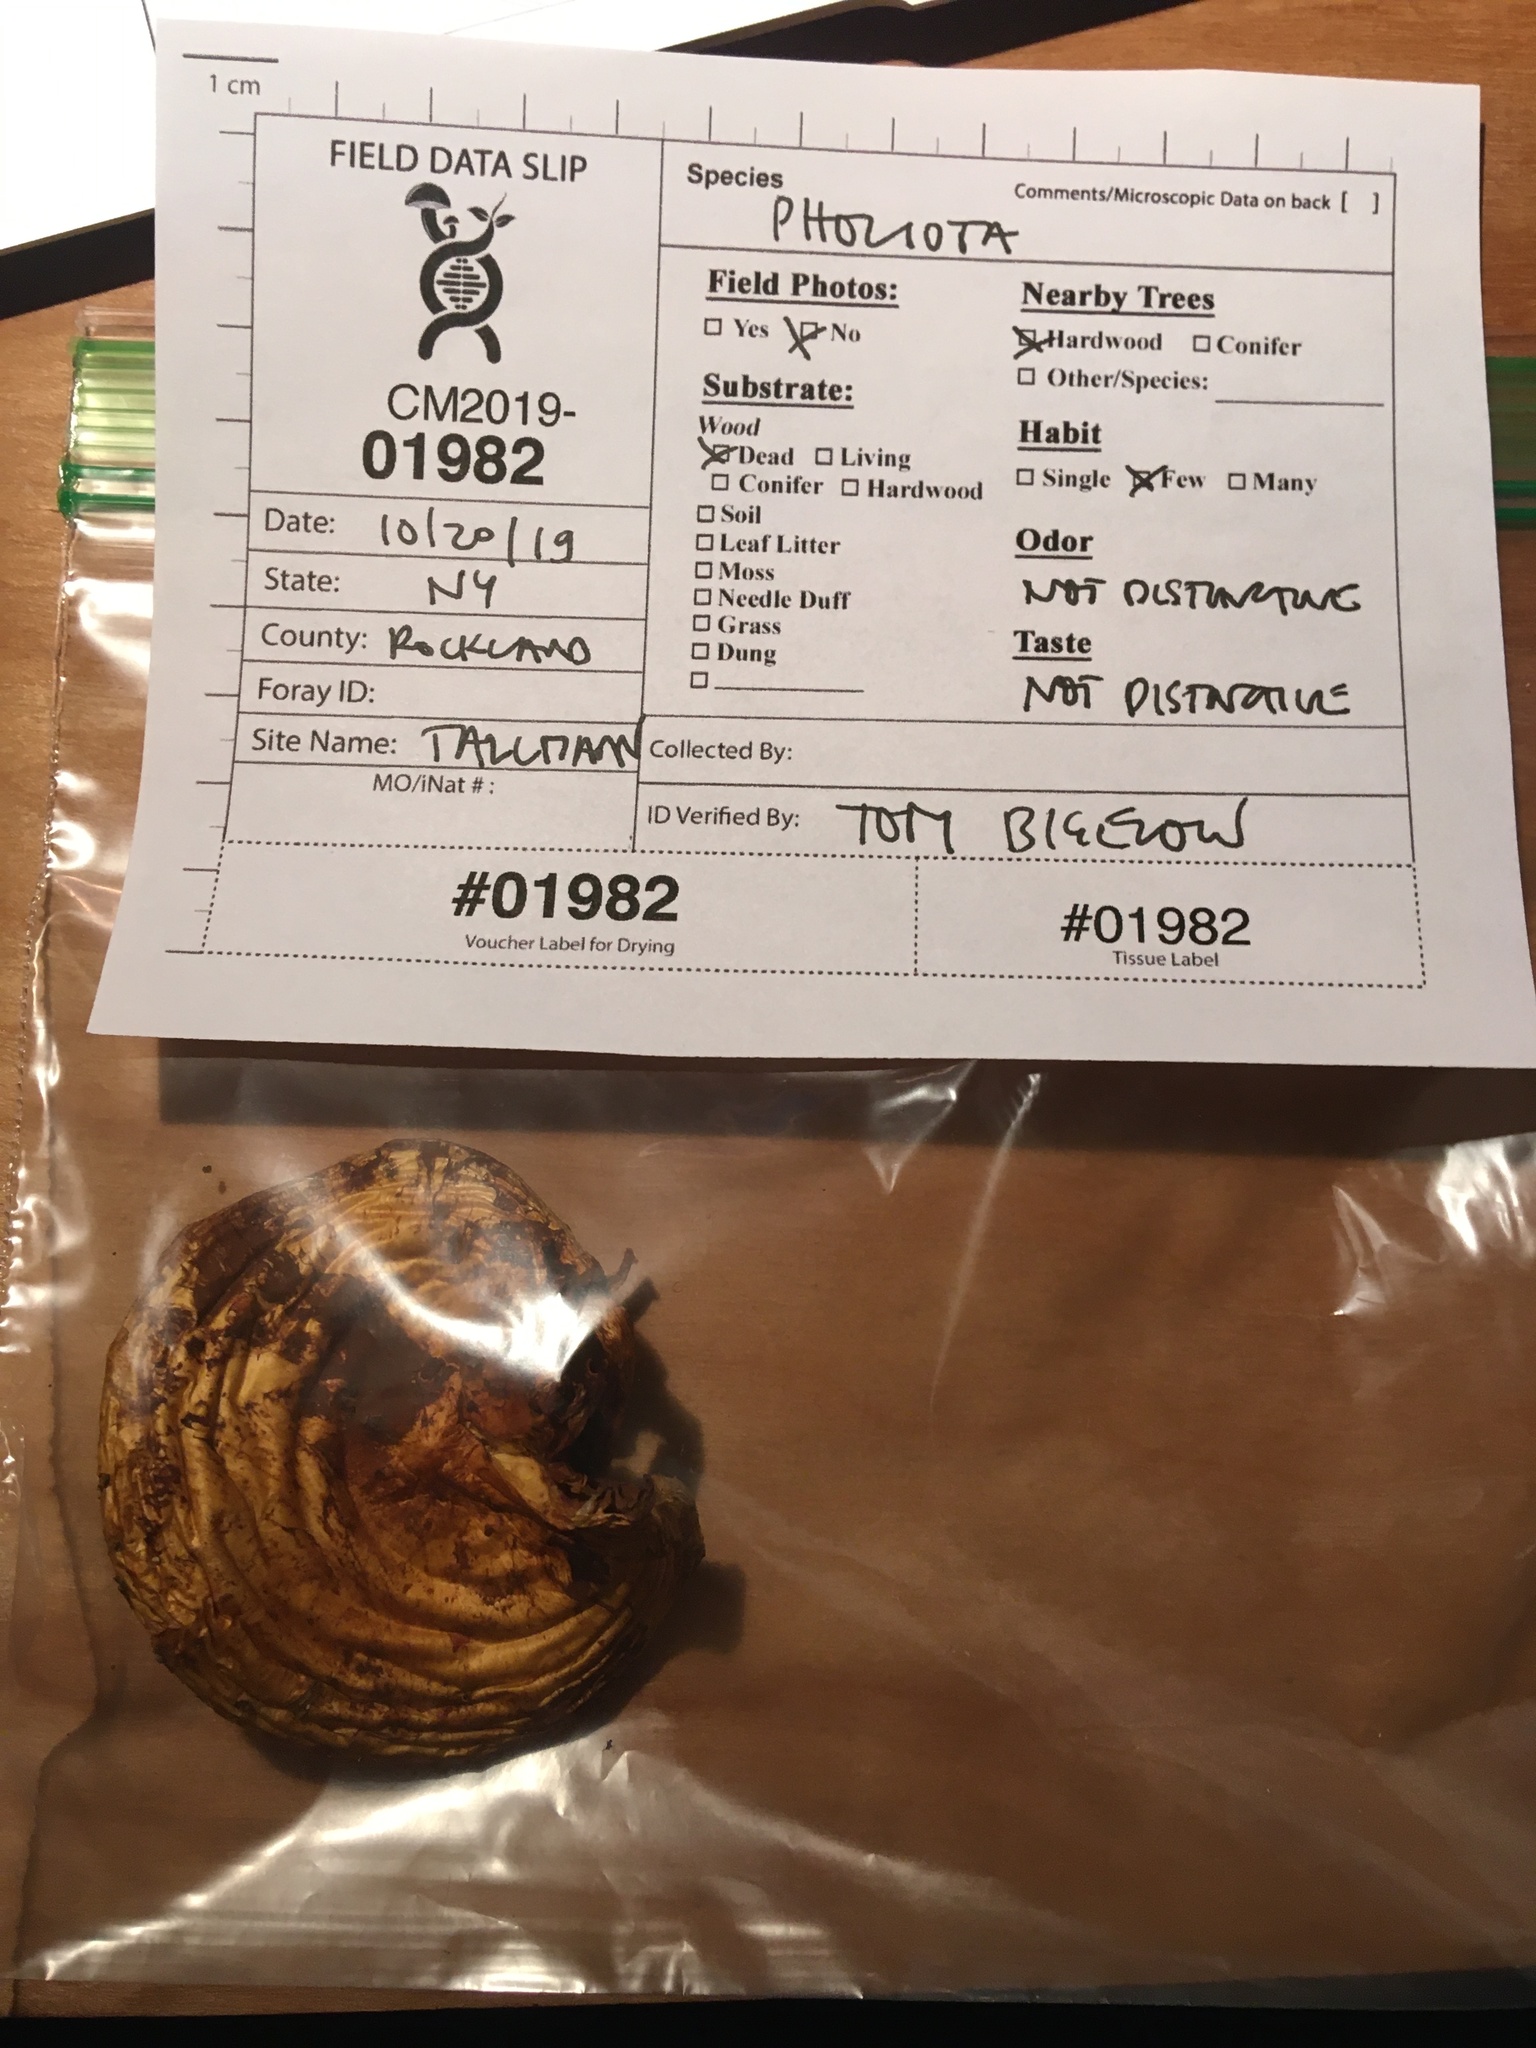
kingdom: Fungi
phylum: Basidiomycota
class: Agaricomycetes
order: Agaricales
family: Strophariaceae
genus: Pholiota
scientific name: Pholiota limonella
